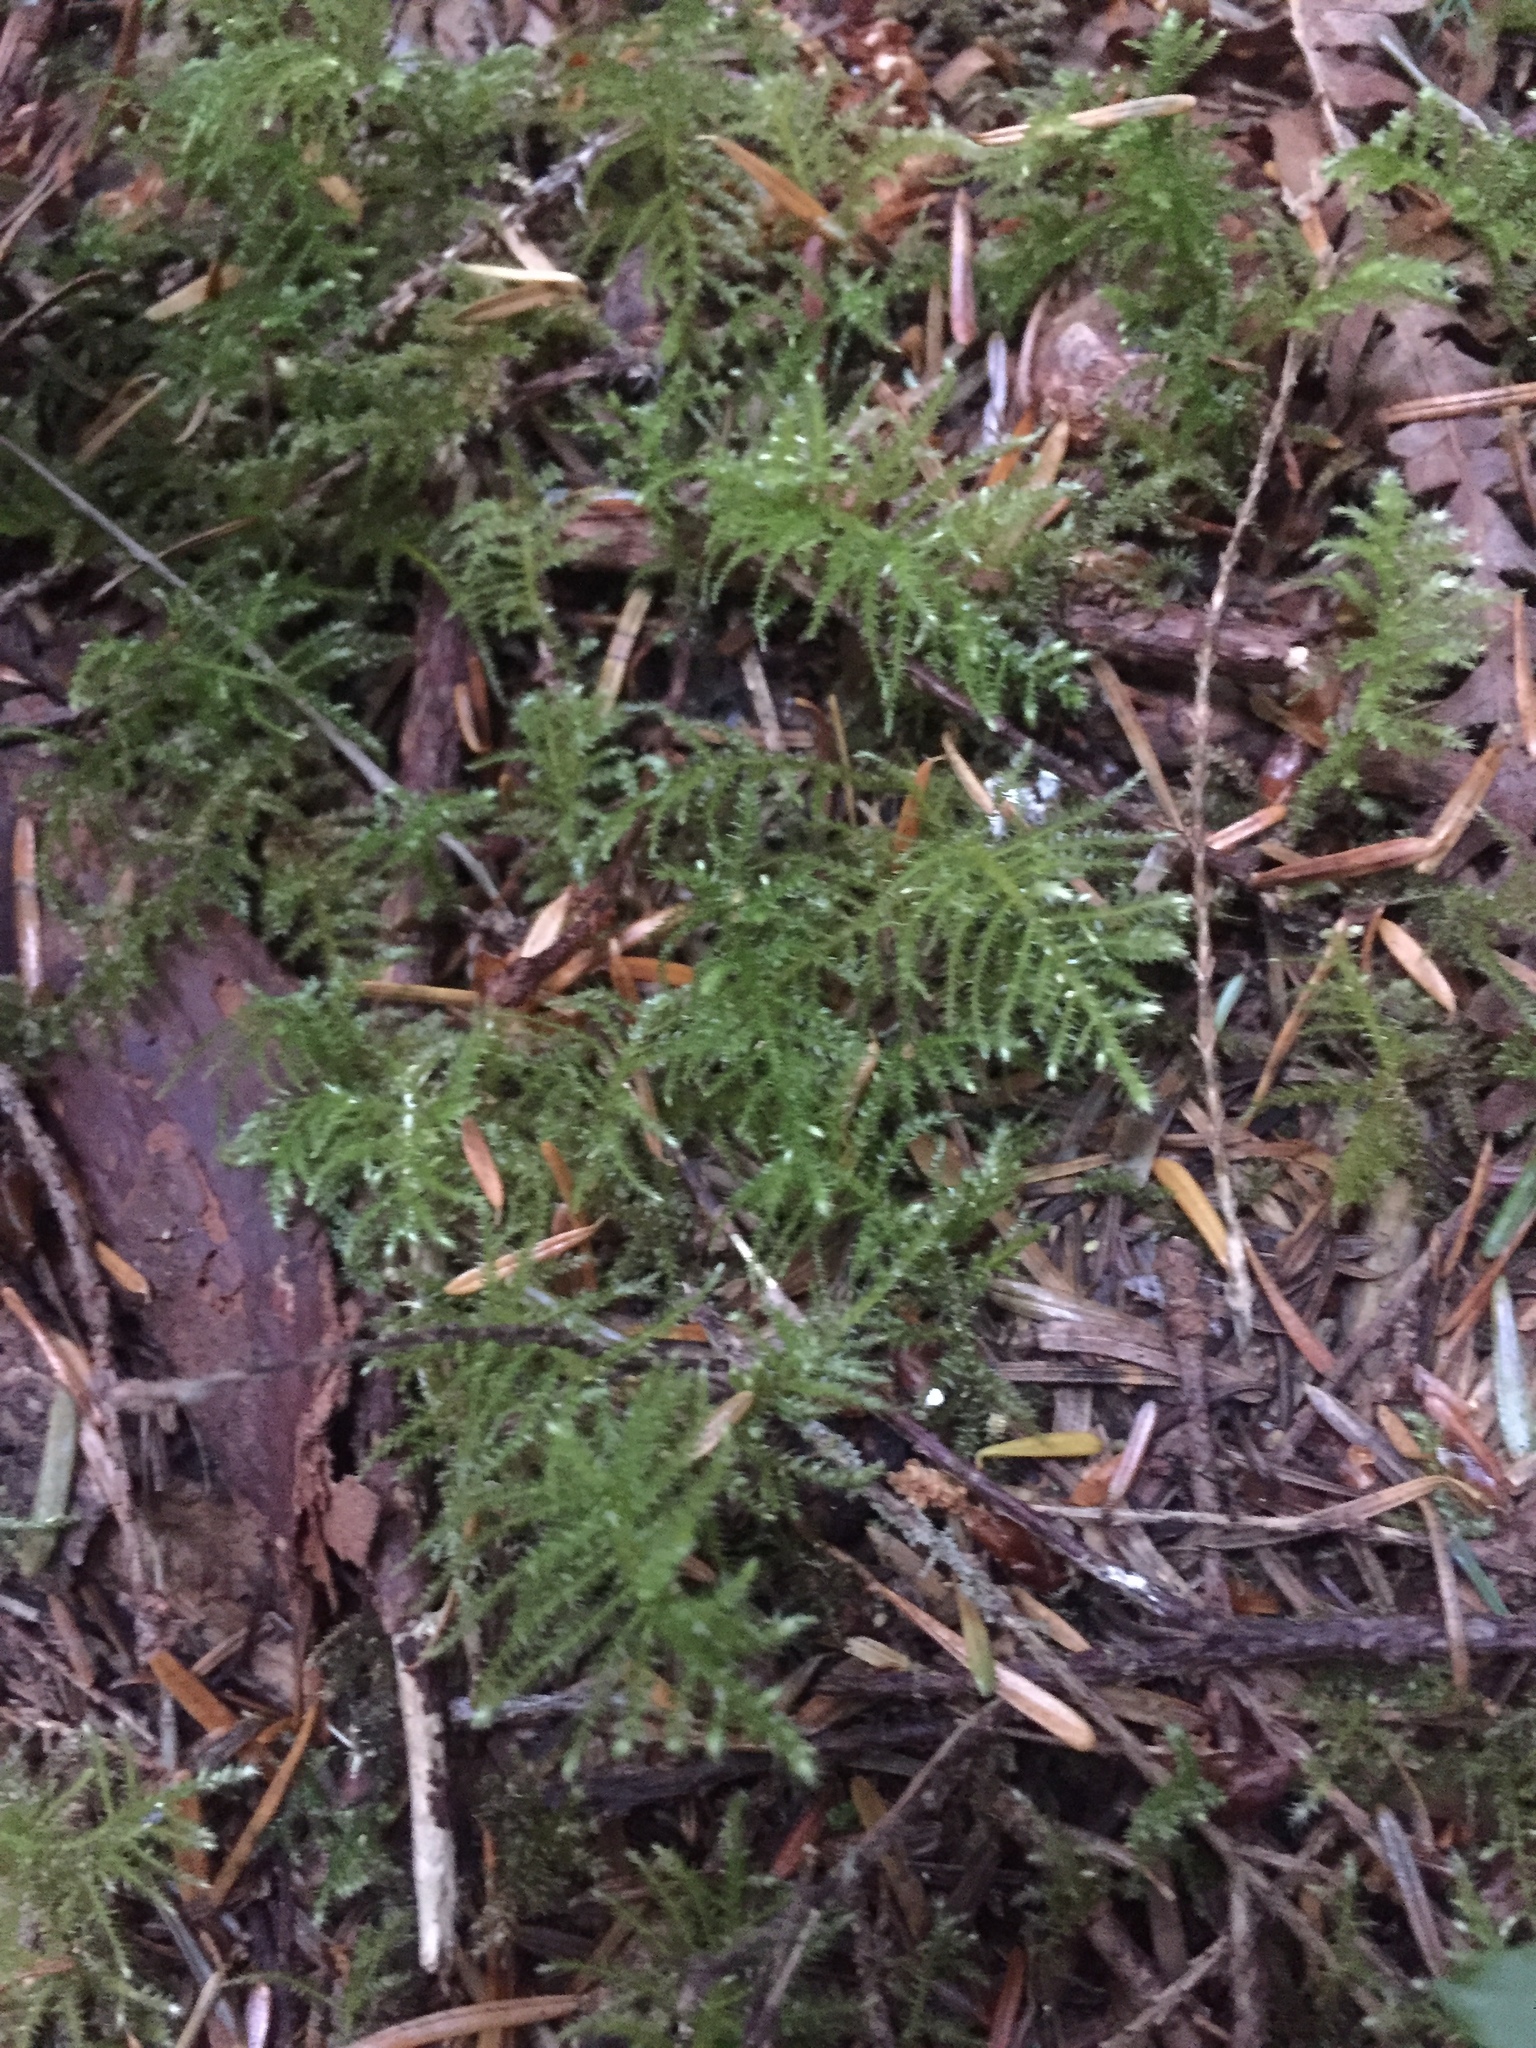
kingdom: Plantae
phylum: Bryophyta
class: Bryopsida
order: Hypnales
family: Brachytheciaceae
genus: Kindbergia
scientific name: Kindbergia oregana
